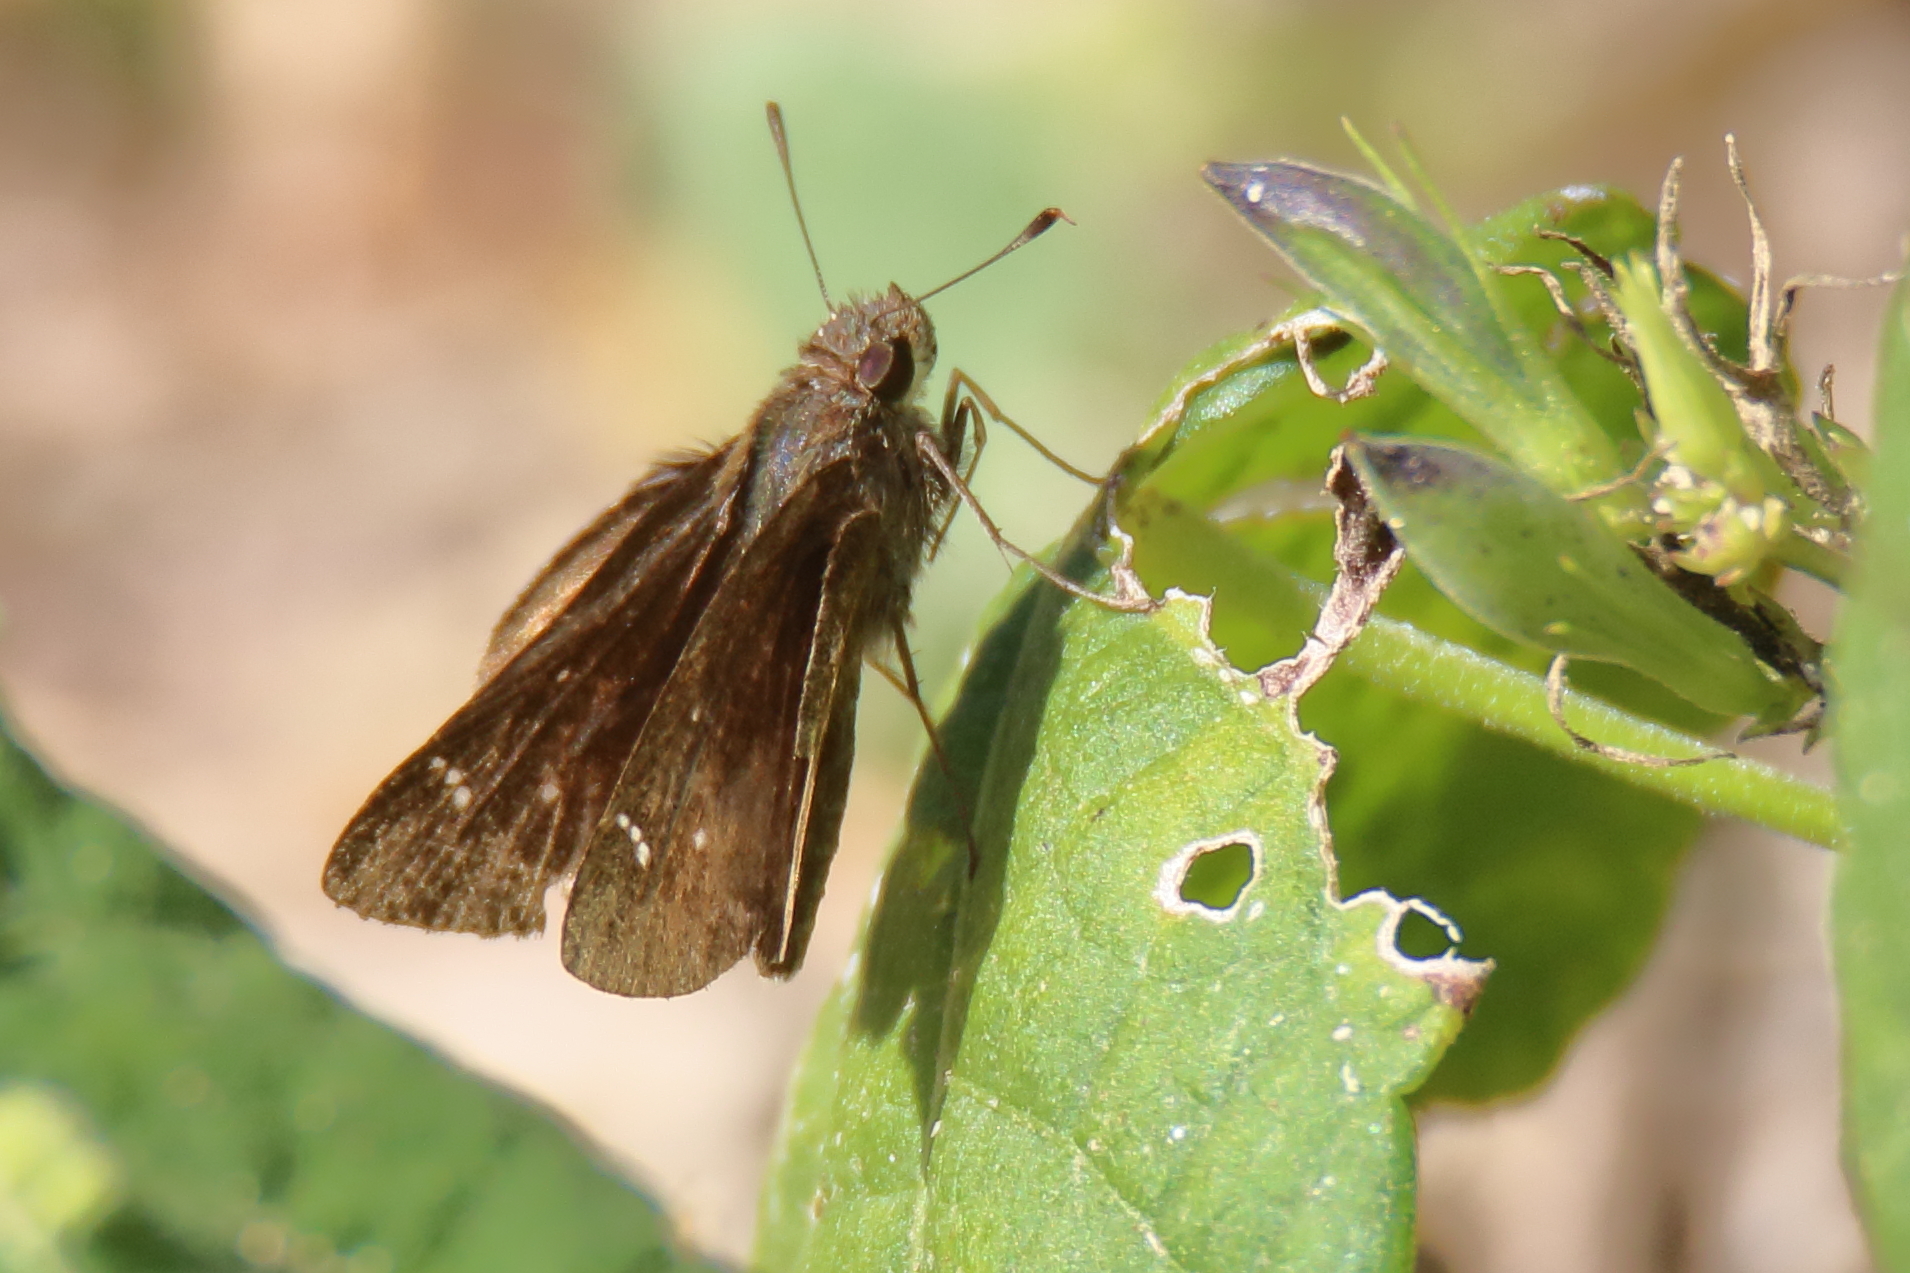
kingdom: Animalia
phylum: Arthropoda
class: Insecta
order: Lepidoptera
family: Hesperiidae
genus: Lerema
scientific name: Lerema accius
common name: Clouded skipper
